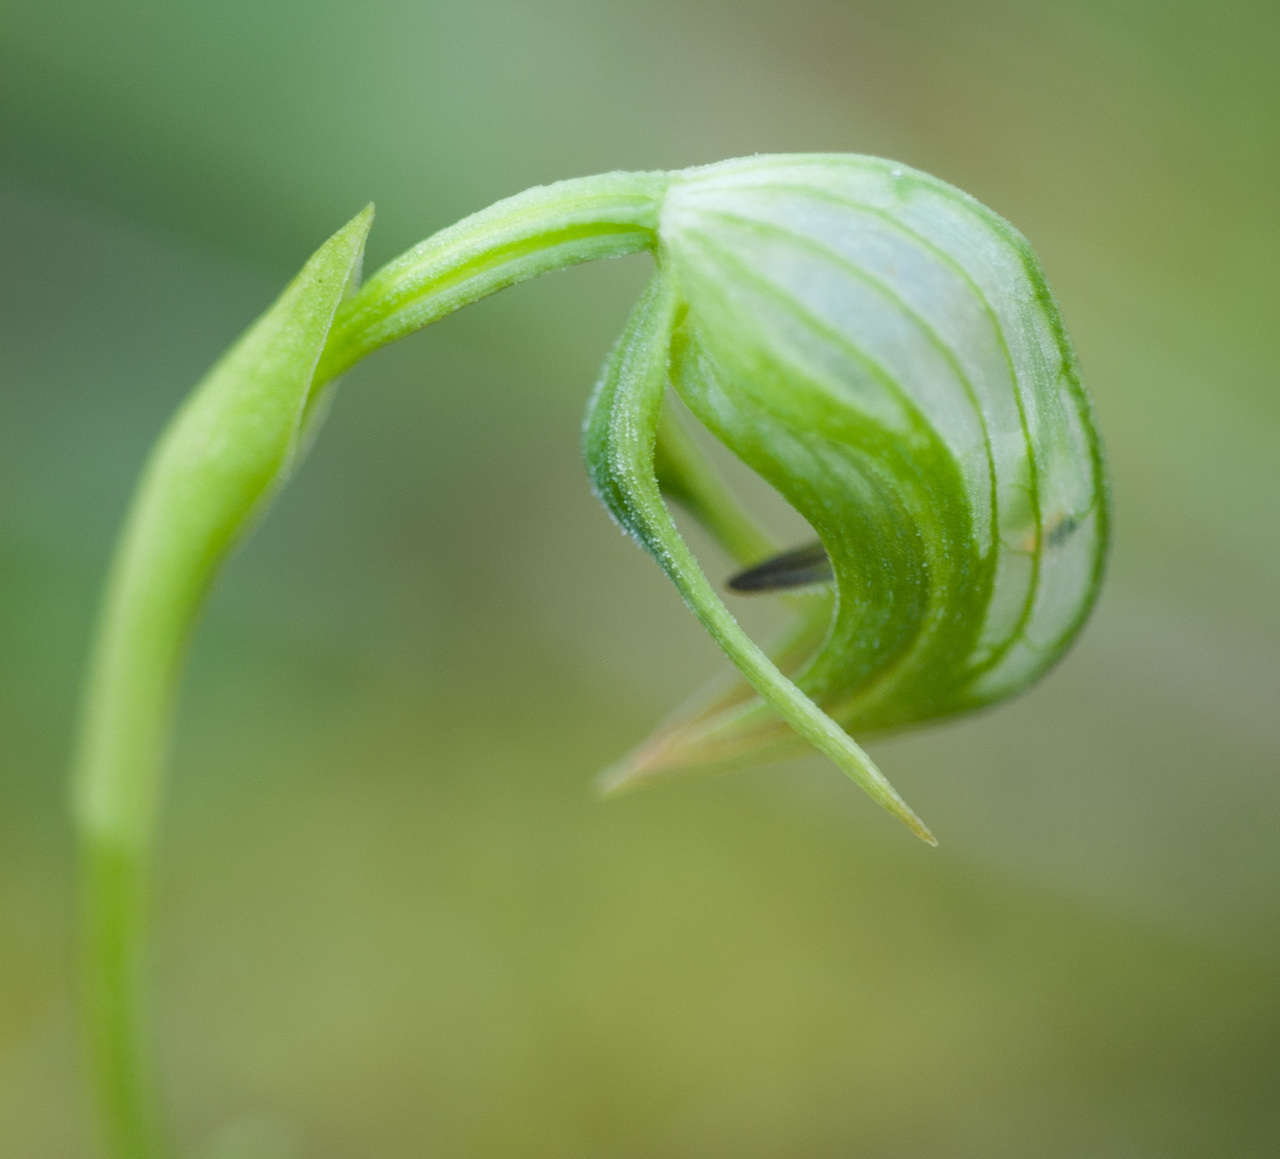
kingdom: Plantae
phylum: Tracheophyta
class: Liliopsida
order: Asparagales
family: Orchidaceae
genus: Pterostylis
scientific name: Pterostylis nutans
